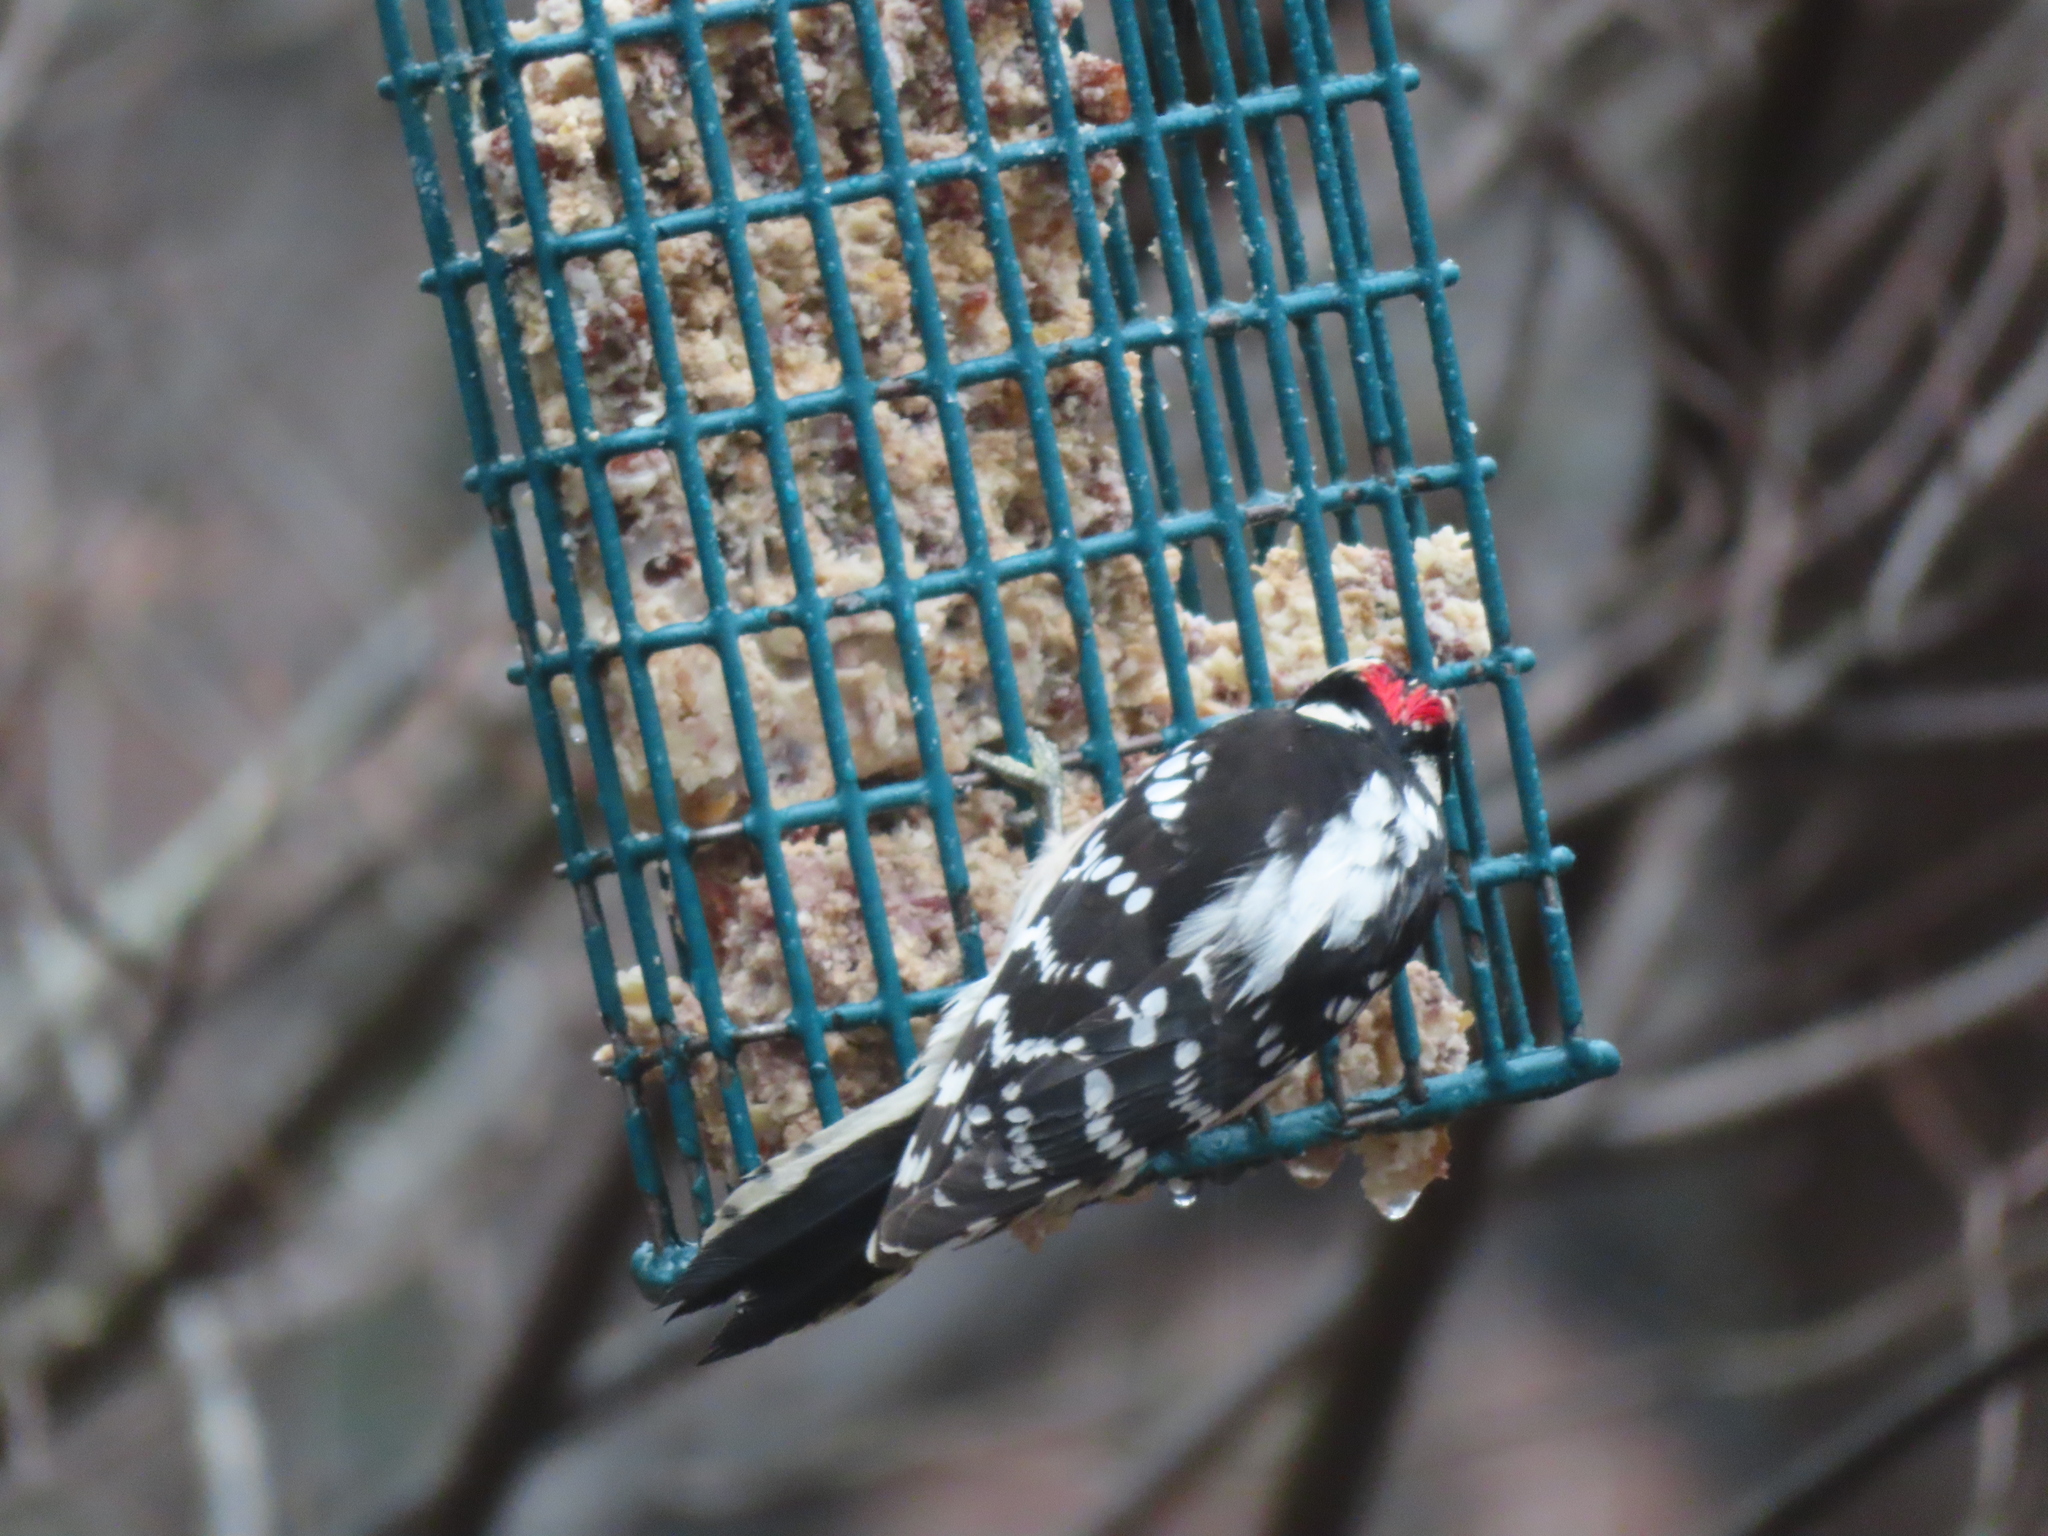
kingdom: Animalia
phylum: Chordata
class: Aves
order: Piciformes
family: Picidae
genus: Dryobates
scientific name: Dryobates pubescens
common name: Downy woodpecker
